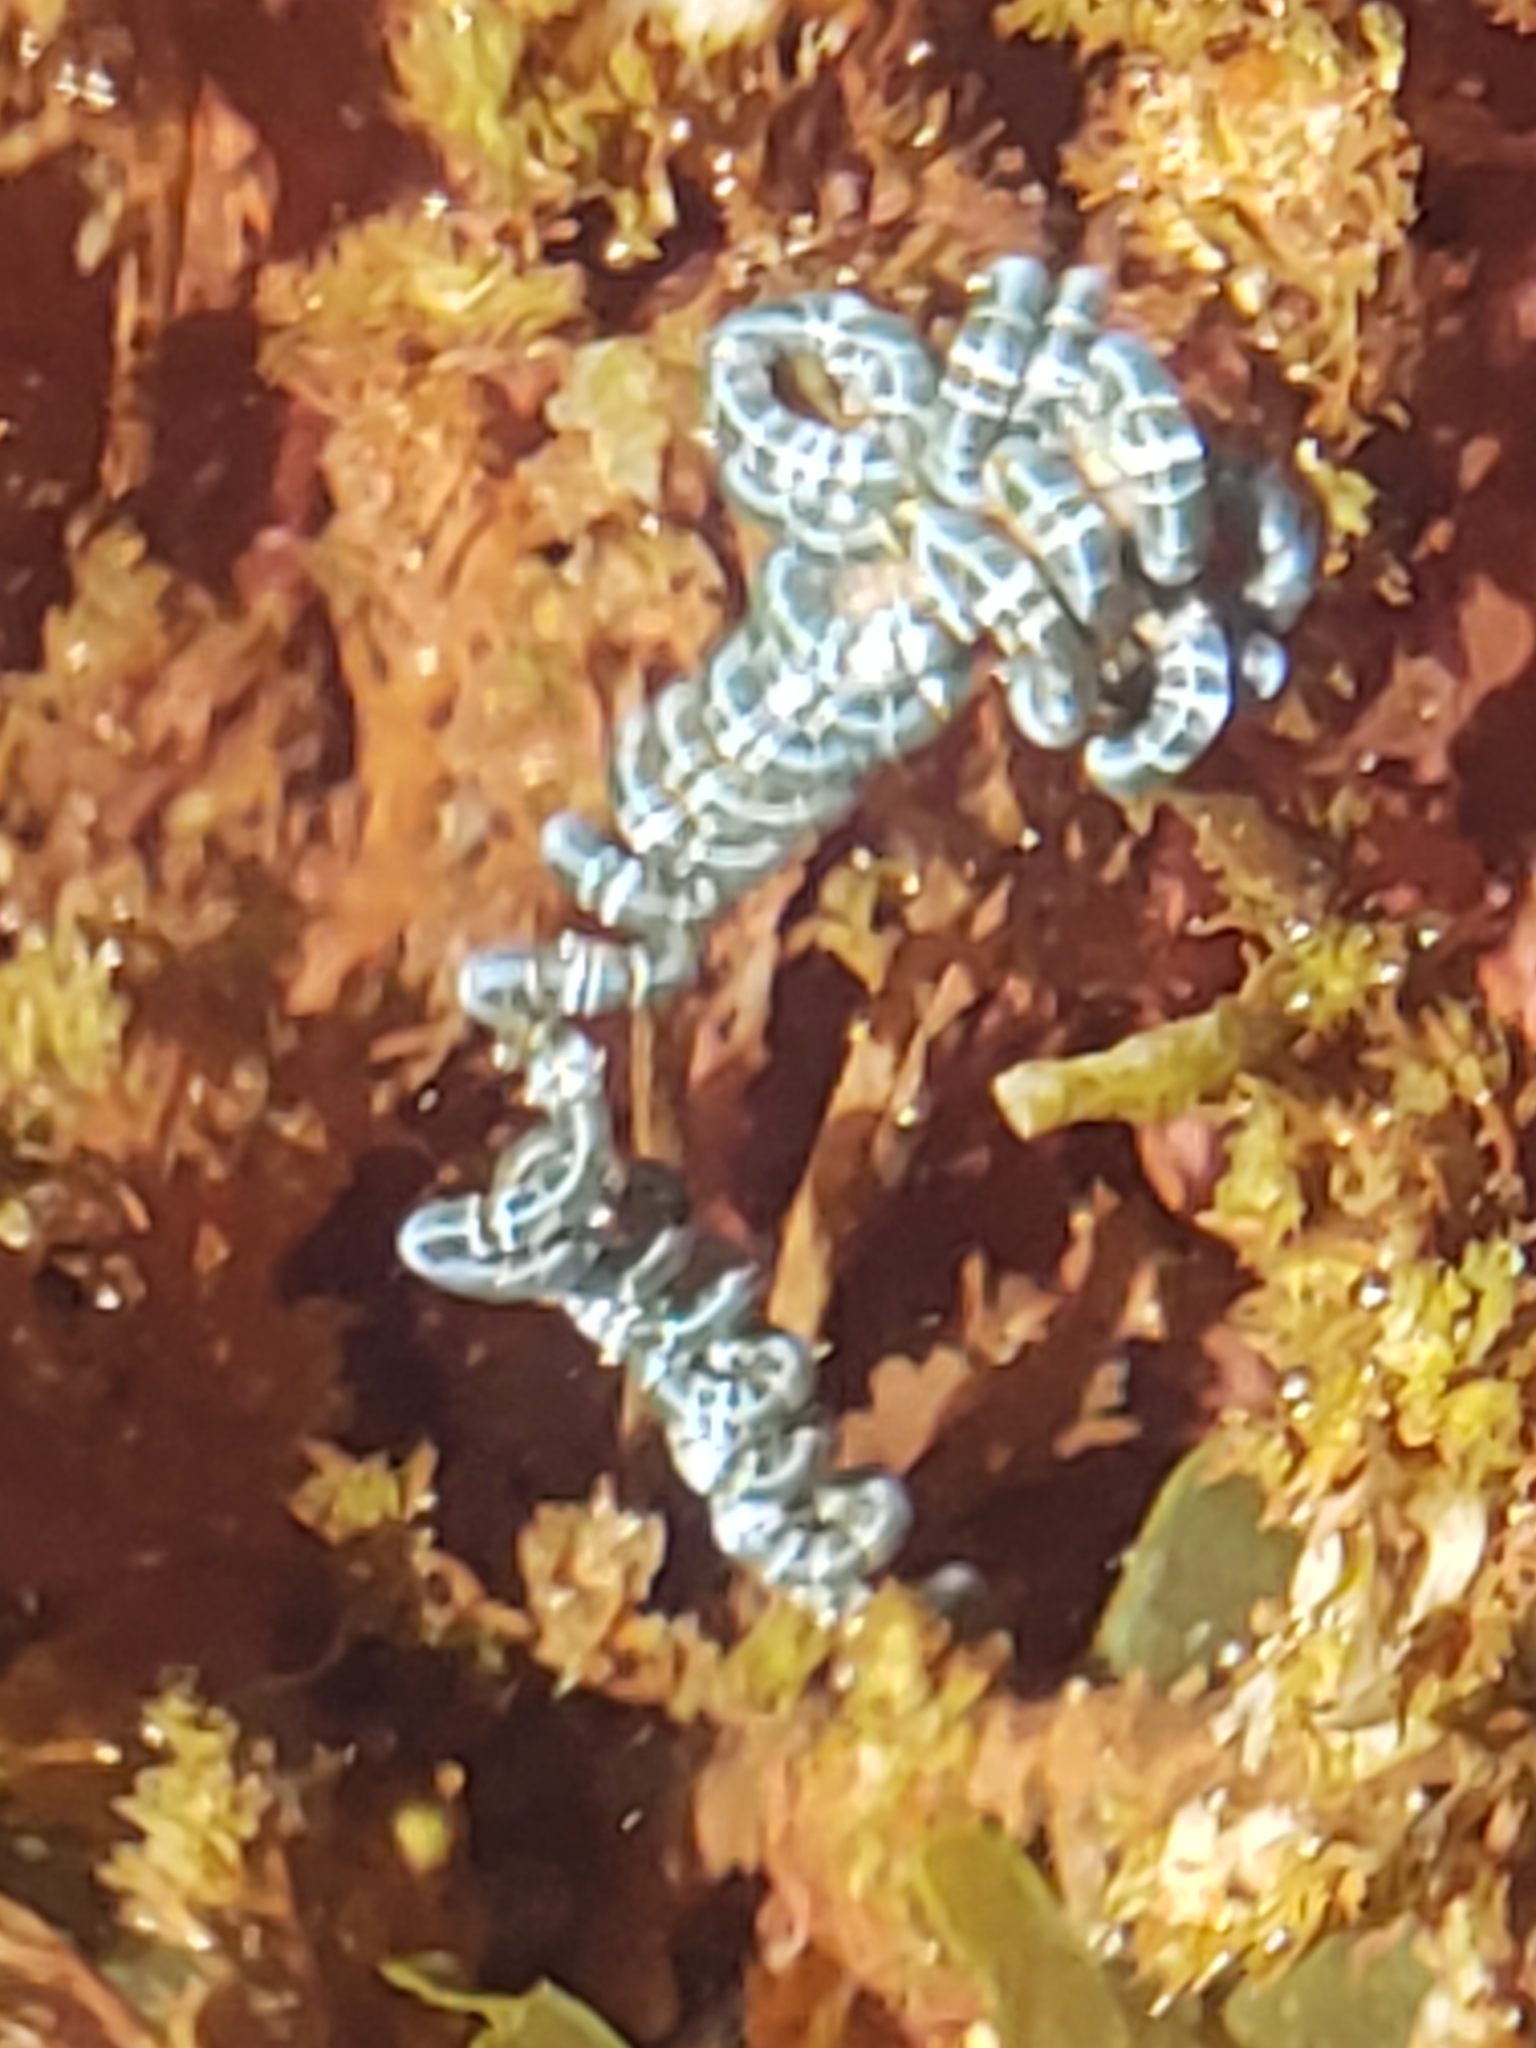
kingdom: Plantae
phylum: Chlorophyta
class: Ulvophyceae
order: Cladophorales
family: Cladophoraceae
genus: Chaetomorpha
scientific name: Chaetomorpha spiralis
